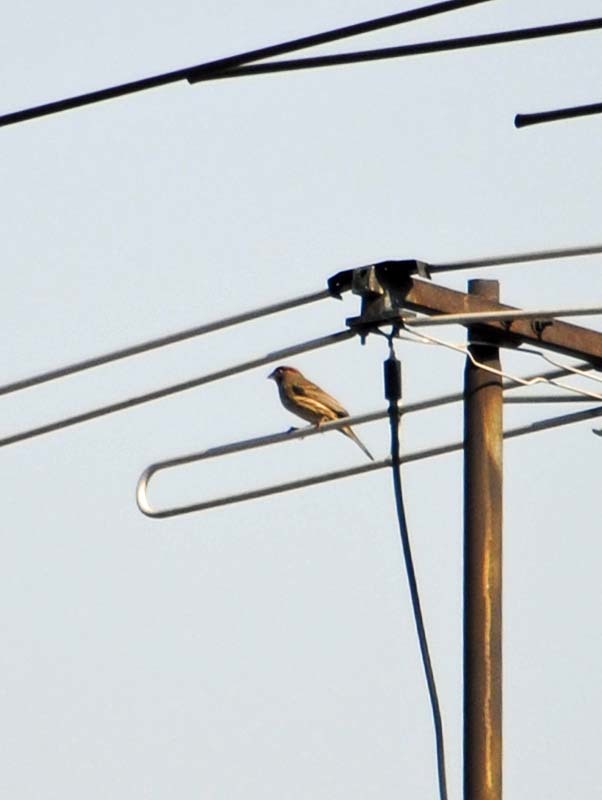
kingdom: Animalia
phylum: Chordata
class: Aves
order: Passeriformes
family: Fringillidae
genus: Haemorhous
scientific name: Haemorhous mexicanus
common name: House finch
